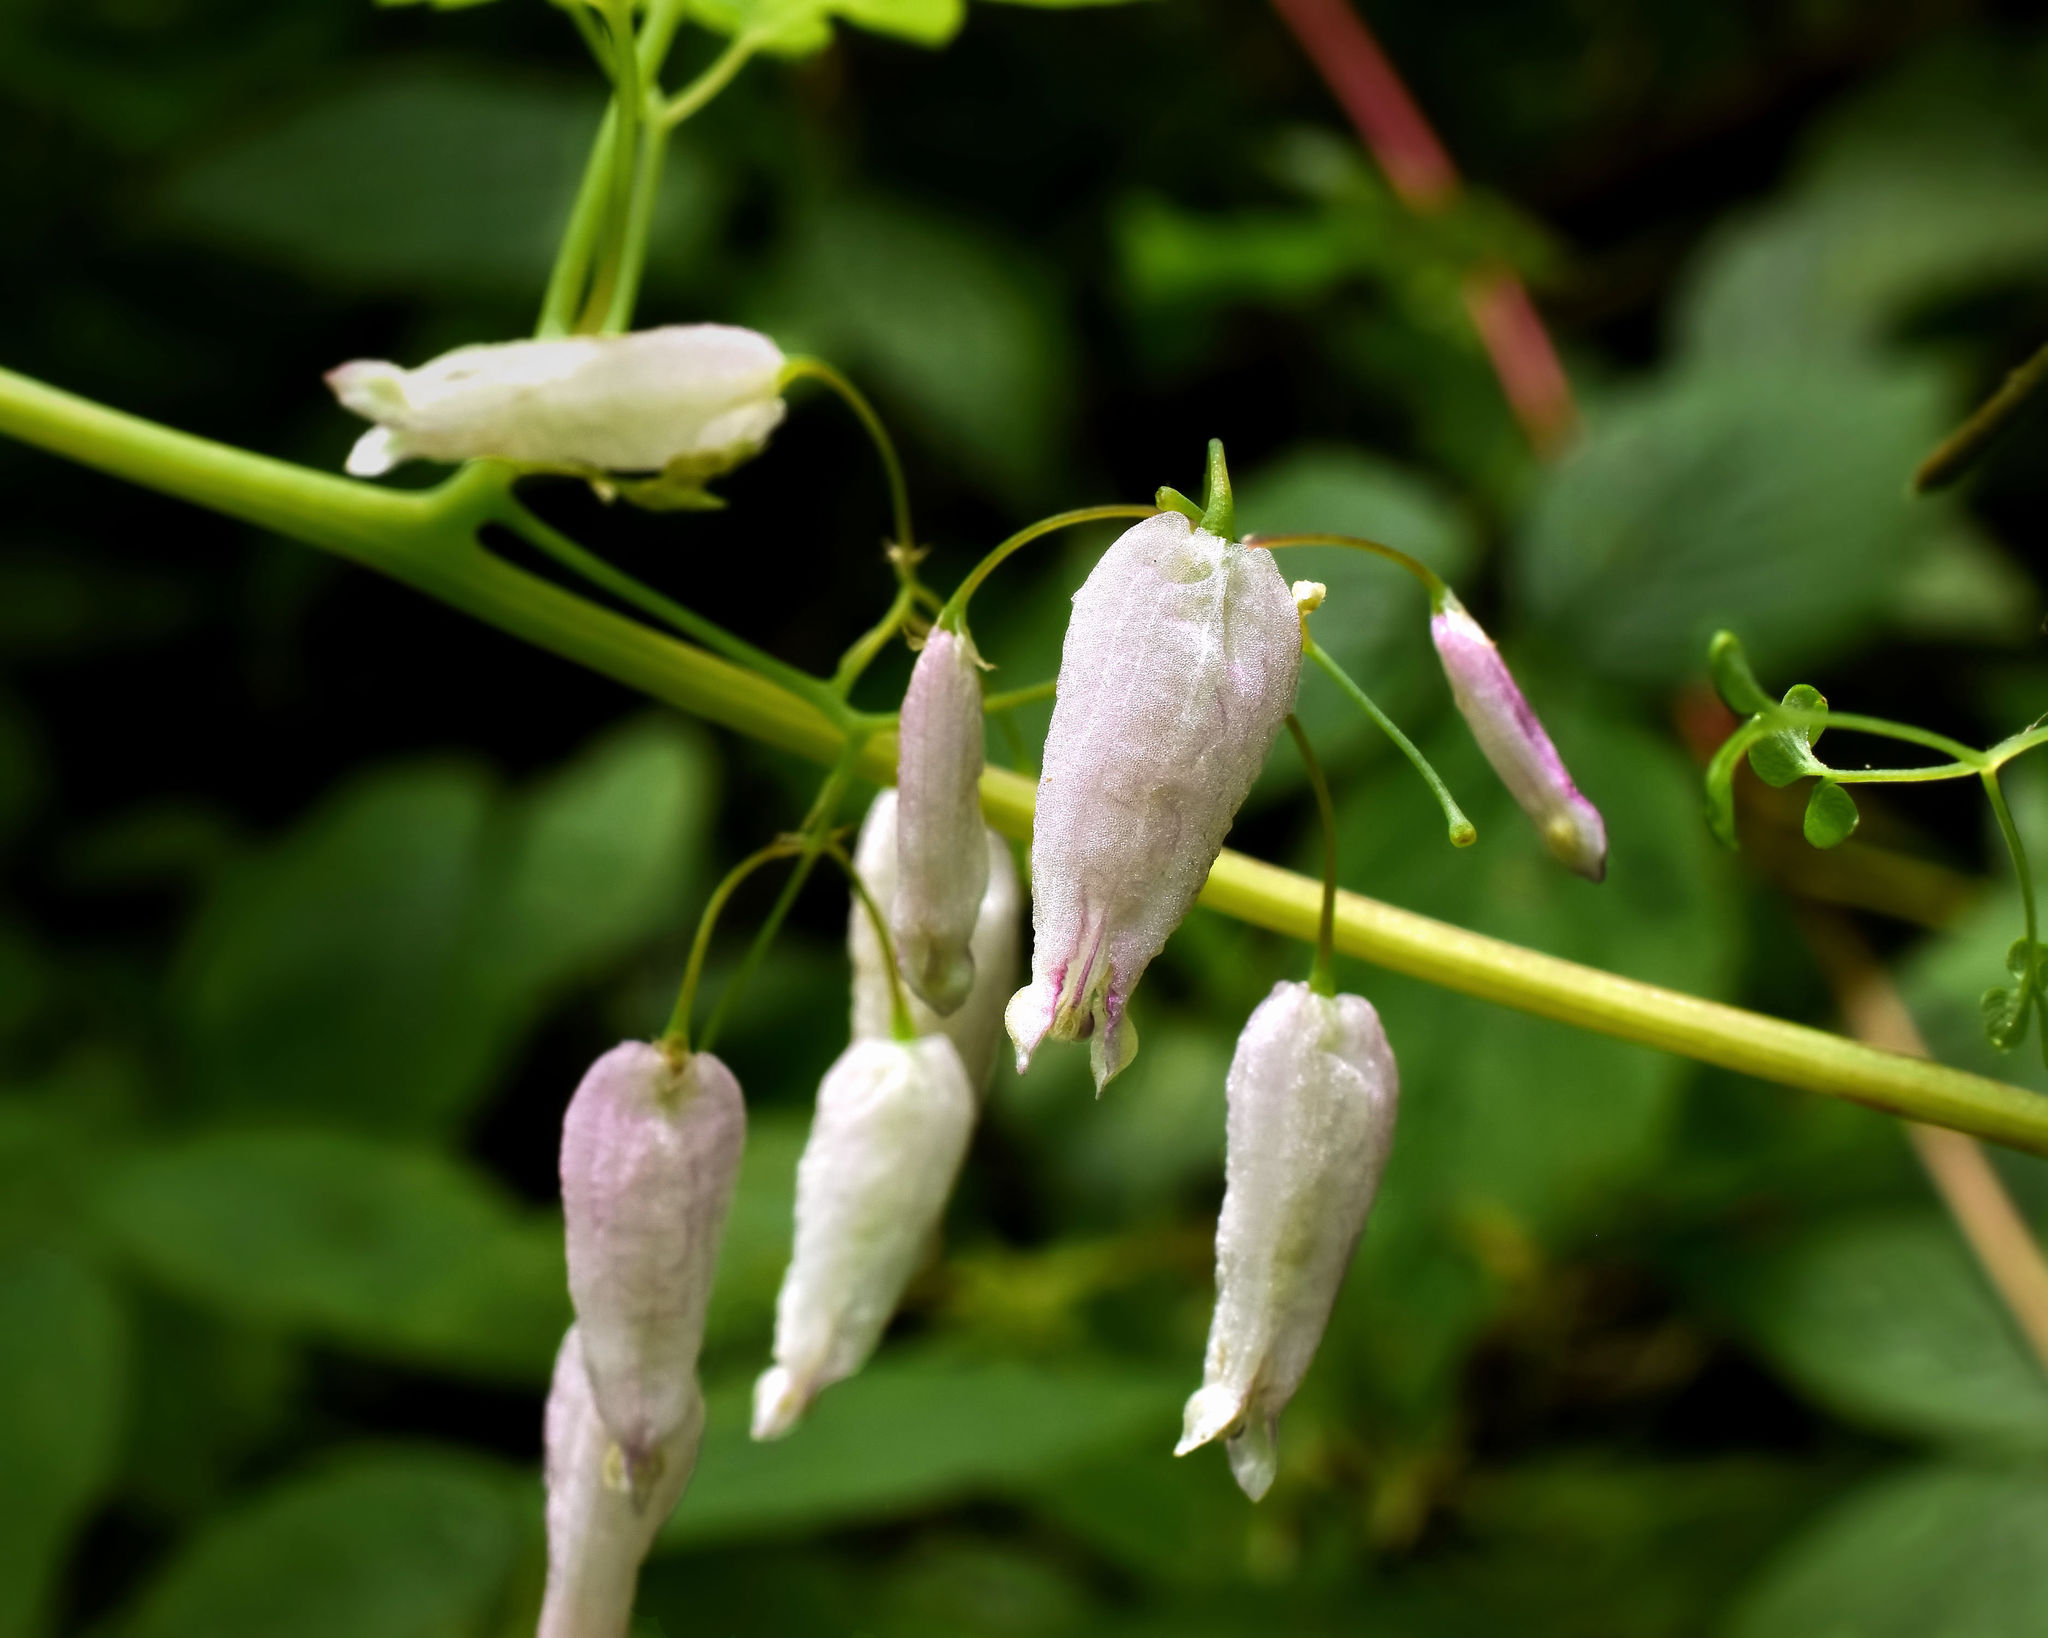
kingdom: Plantae
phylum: Tracheophyta
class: Magnoliopsida
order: Ranunculales
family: Papaveraceae
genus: Adlumia
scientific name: Adlumia fungosa
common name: Mountain-fringe
